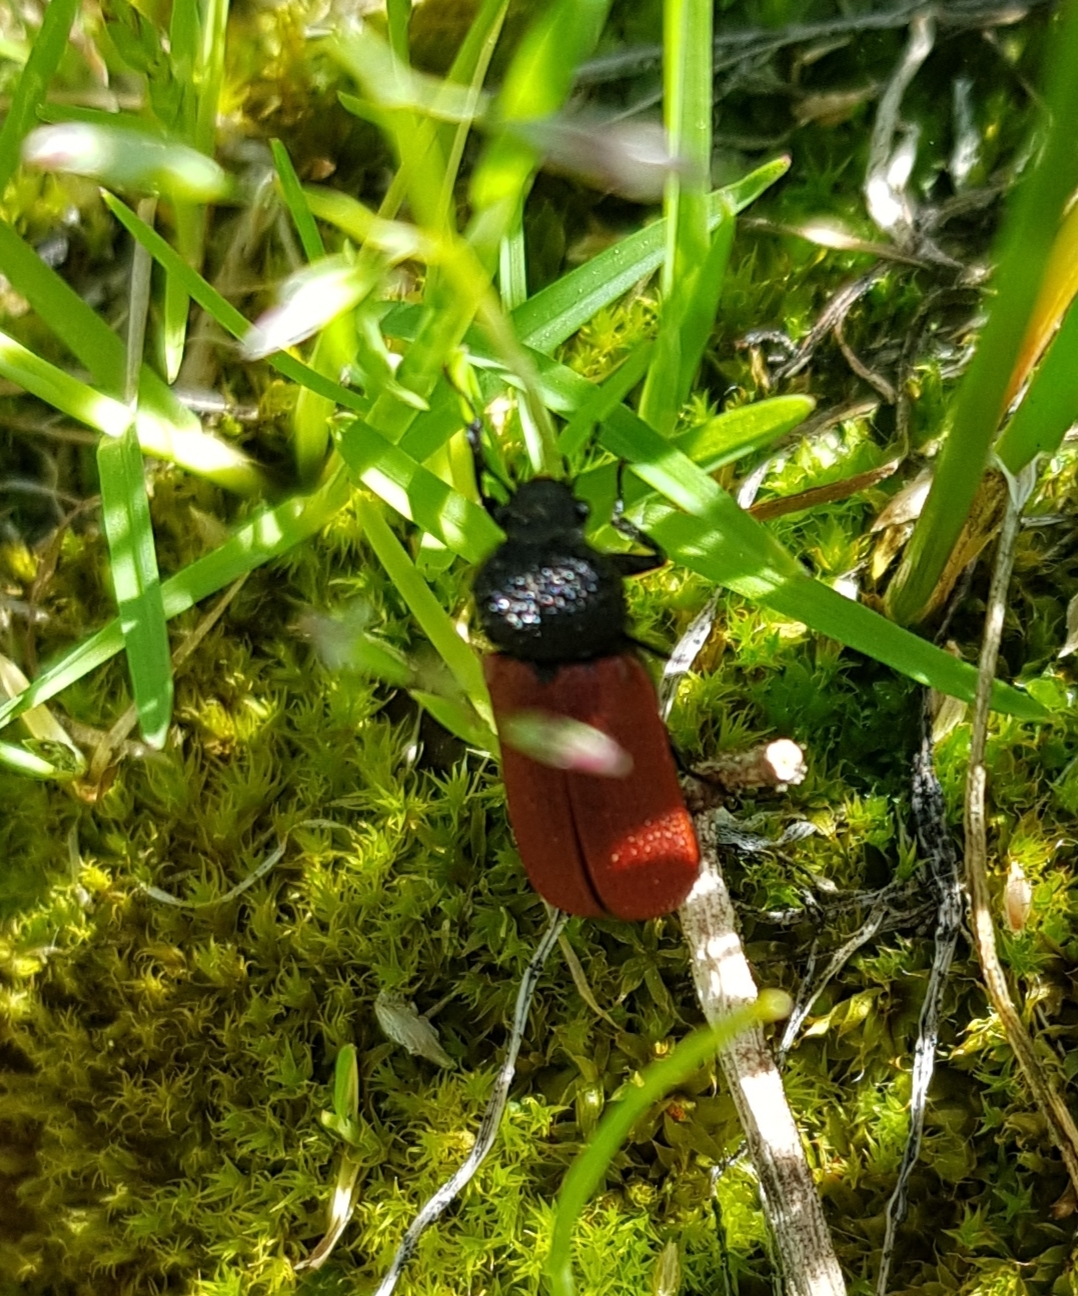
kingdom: Animalia
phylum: Arthropoda
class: Insecta
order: Coleoptera
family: Bostrichidae
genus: Bostrichus
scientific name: Bostrichus capucinus
